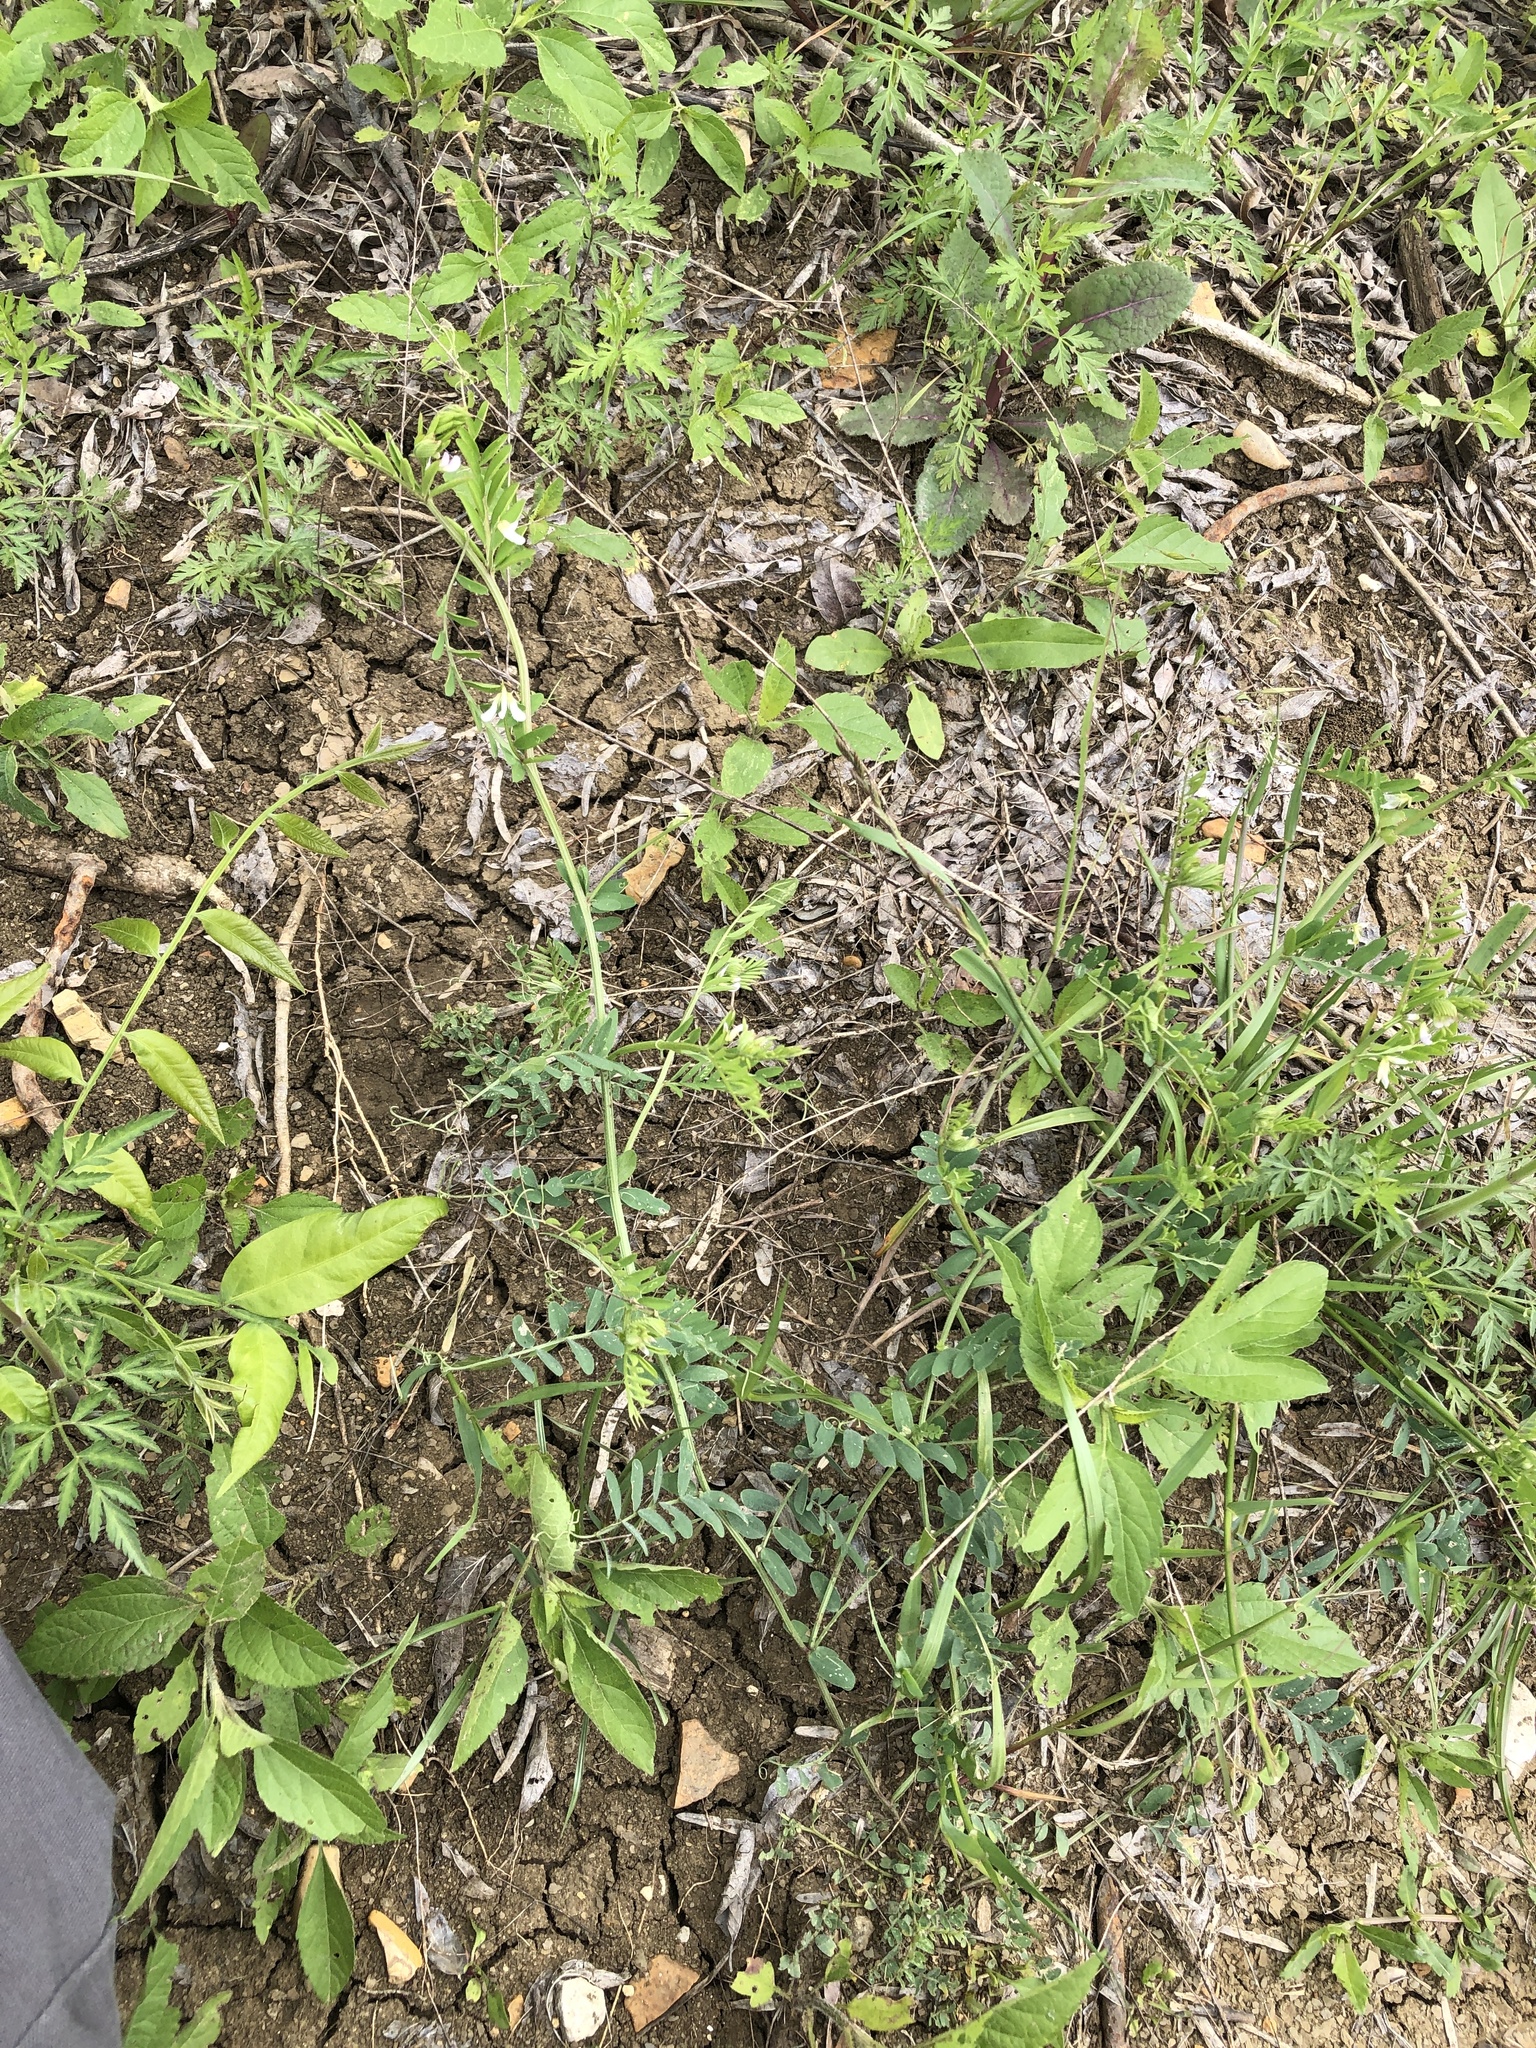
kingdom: Plantae
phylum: Tracheophyta
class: Magnoliopsida
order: Fabales
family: Fabaceae
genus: Vicia
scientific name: Vicia ludoviciana
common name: Louisiana vetch
